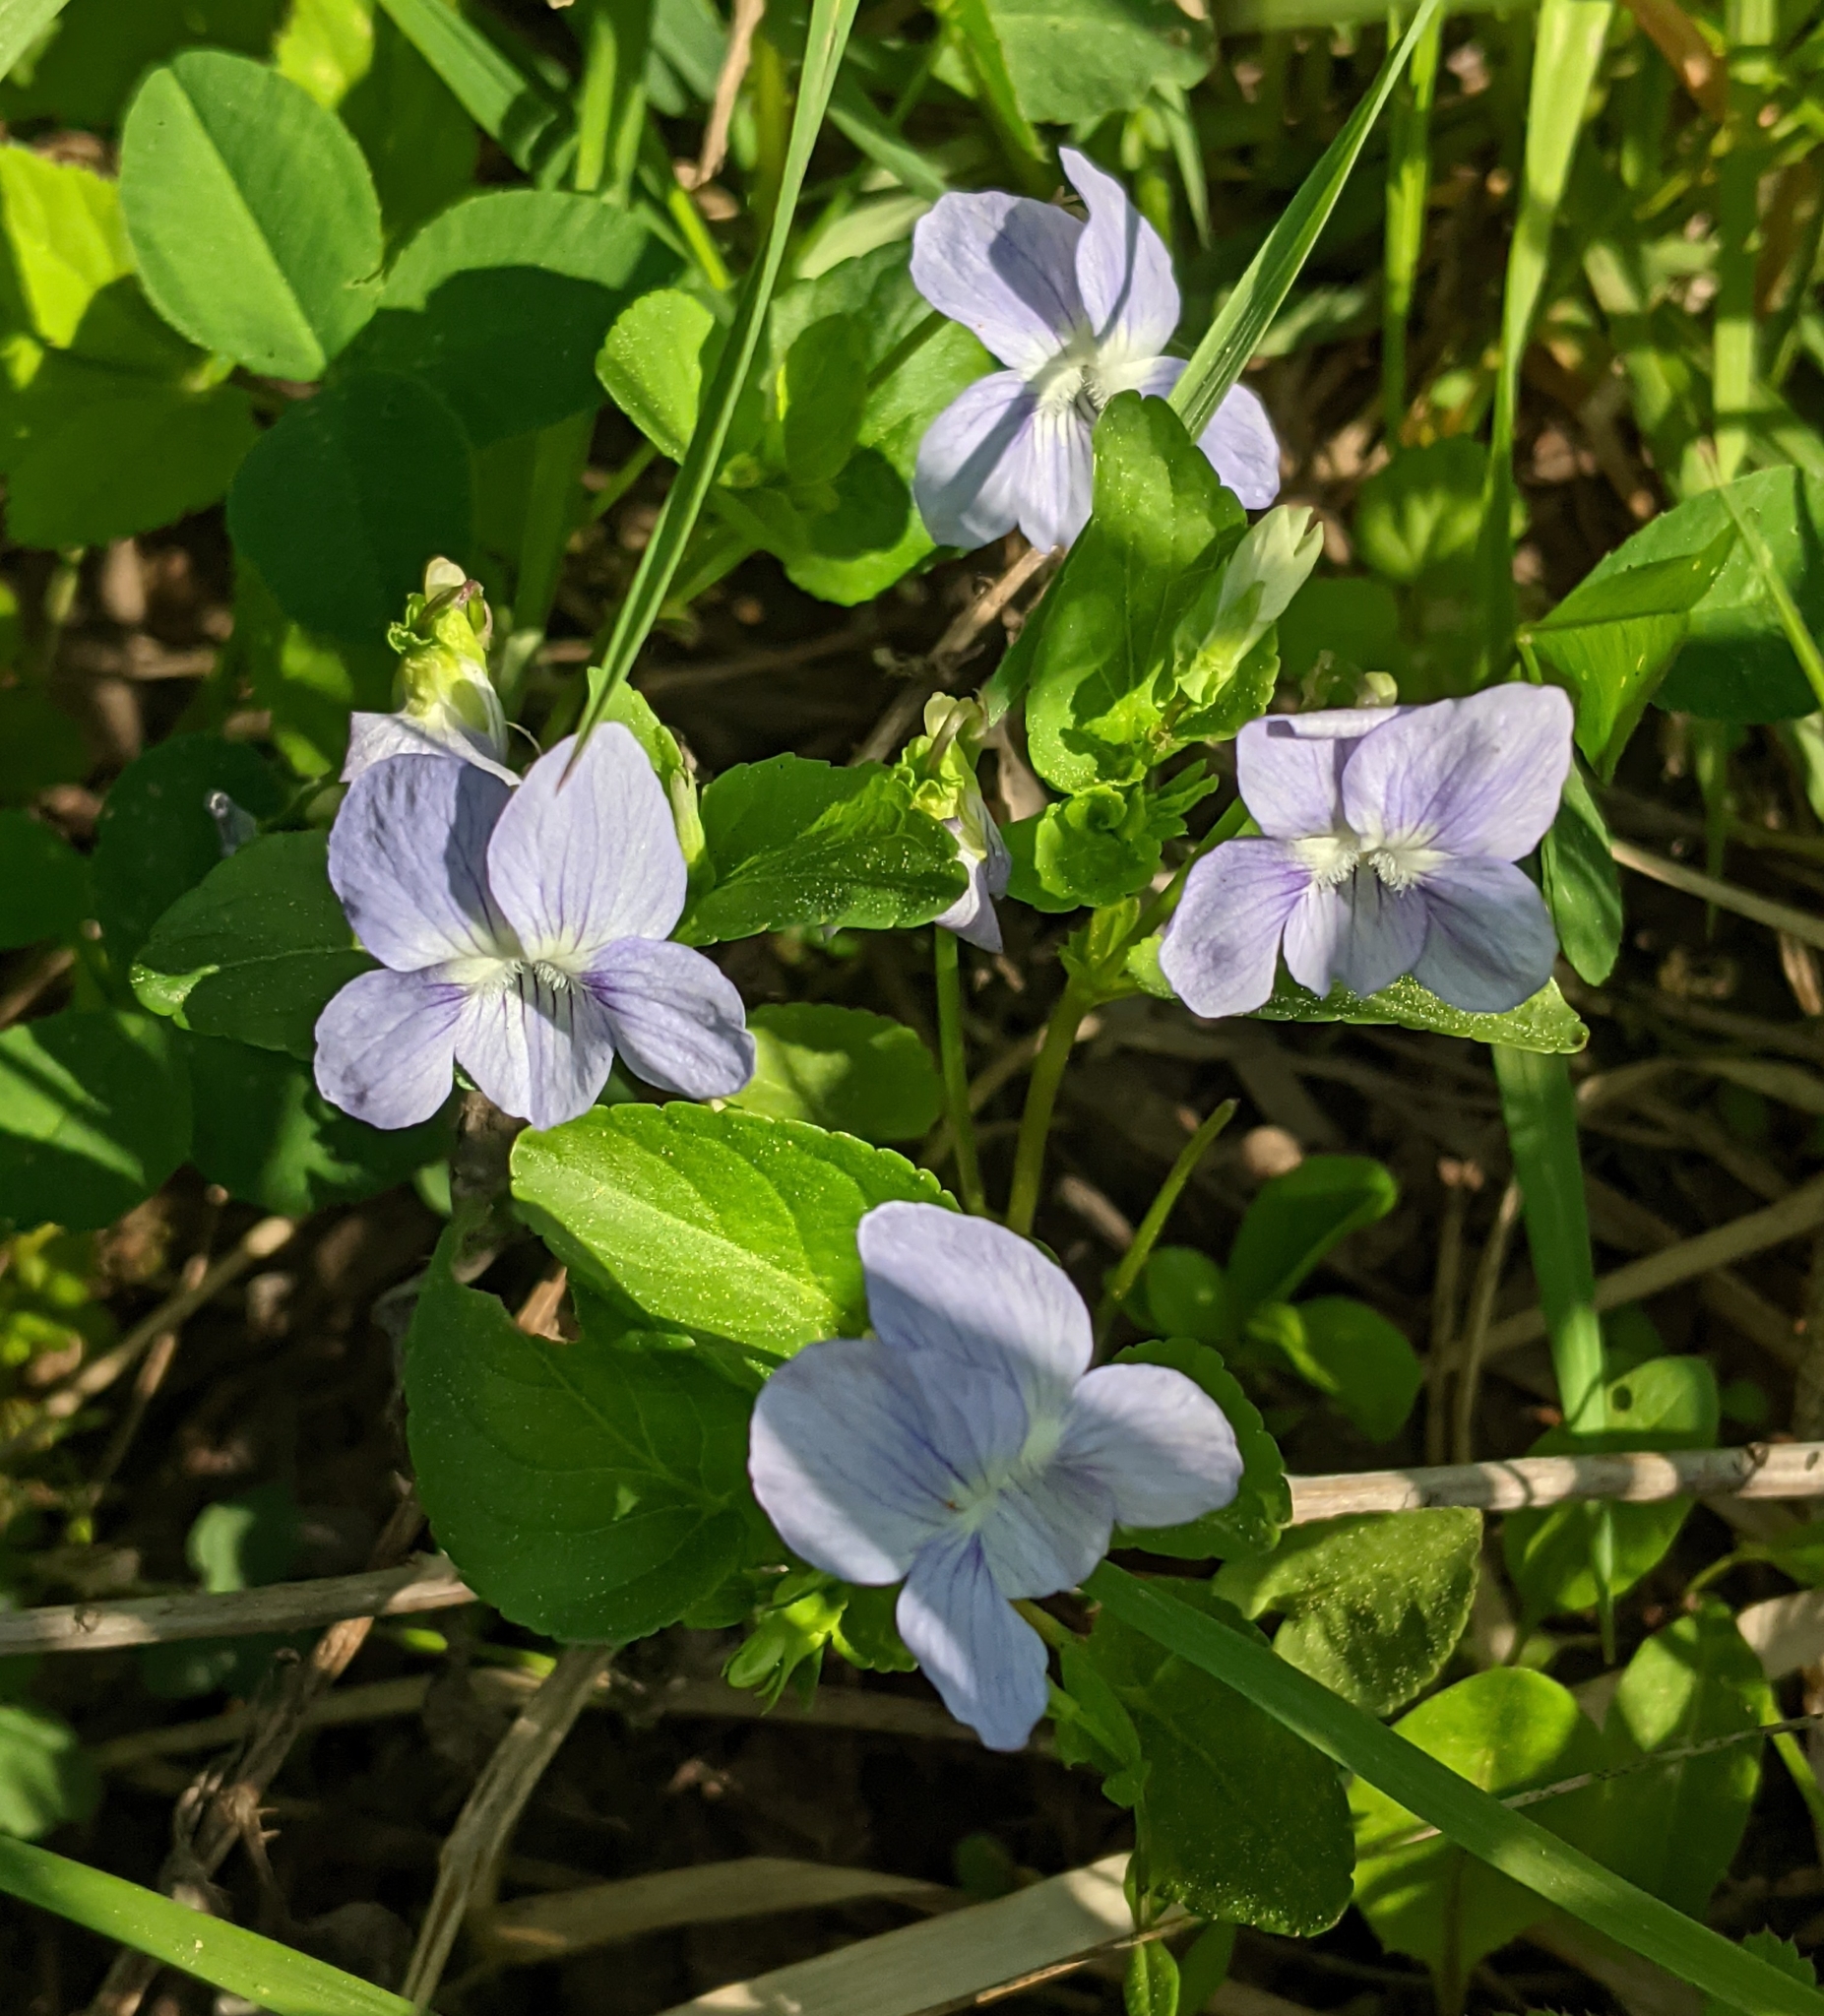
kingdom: Plantae
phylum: Tracheophyta
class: Magnoliopsida
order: Malpighiales
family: Violaceae
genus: Viola
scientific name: Viola canina
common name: Heath dog-violet
